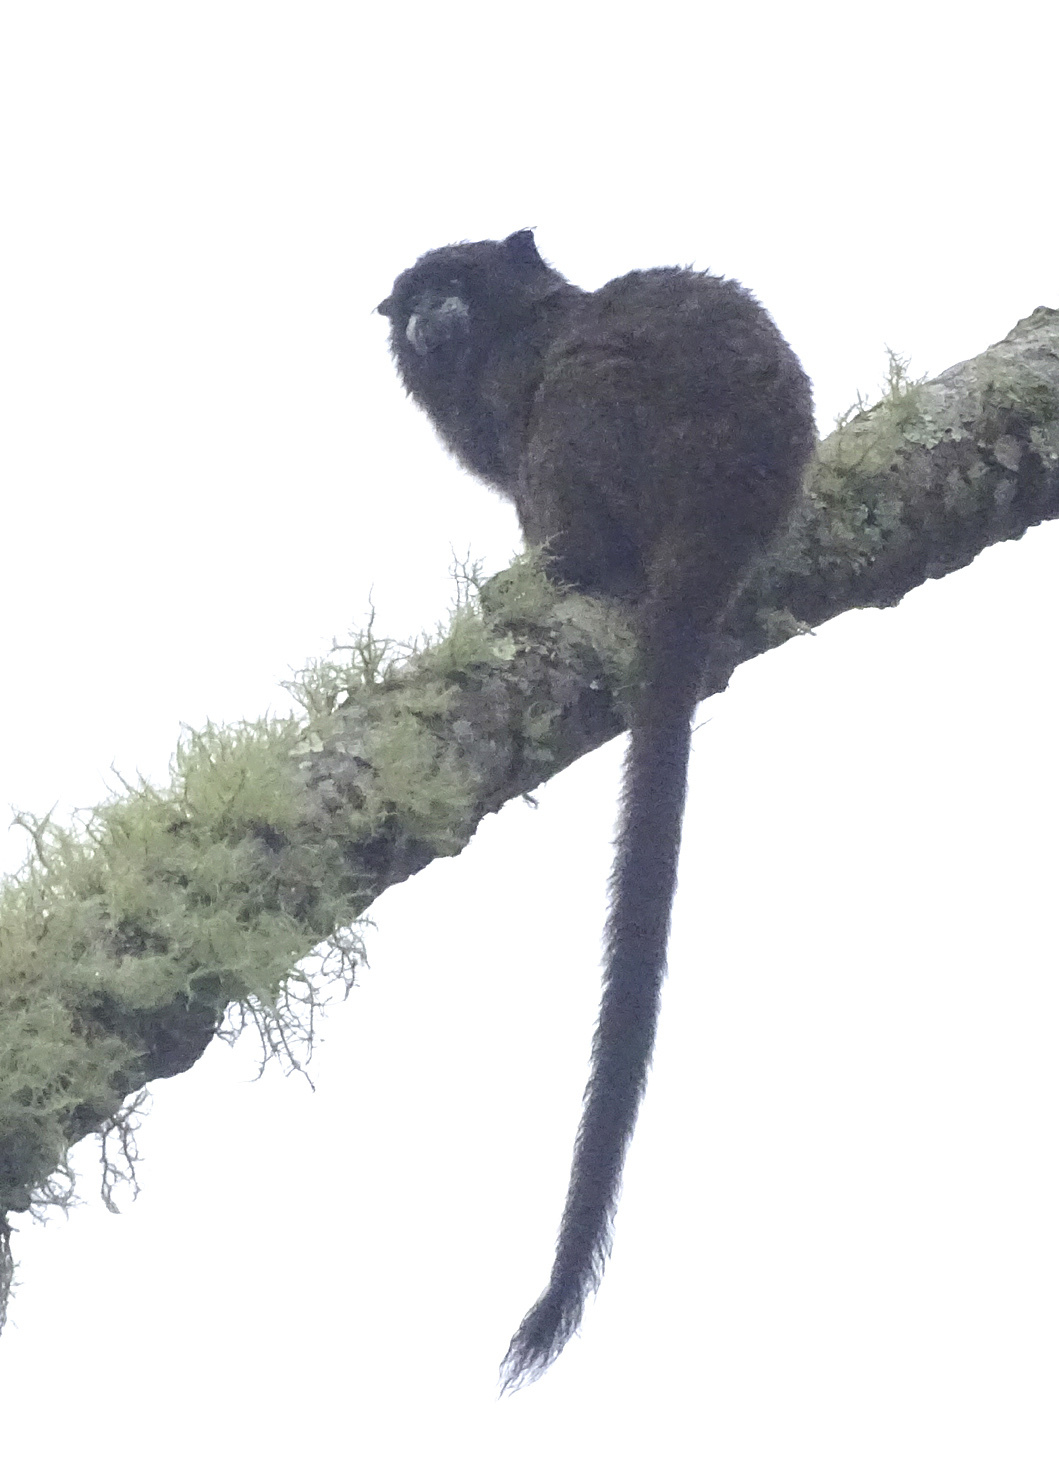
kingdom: Animalia
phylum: Chordata
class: Mammalia
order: Primates
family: Callitrichidae
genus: Leontocebus
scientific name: Leontocebus nigricollis
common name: Black-mantled tamarin
